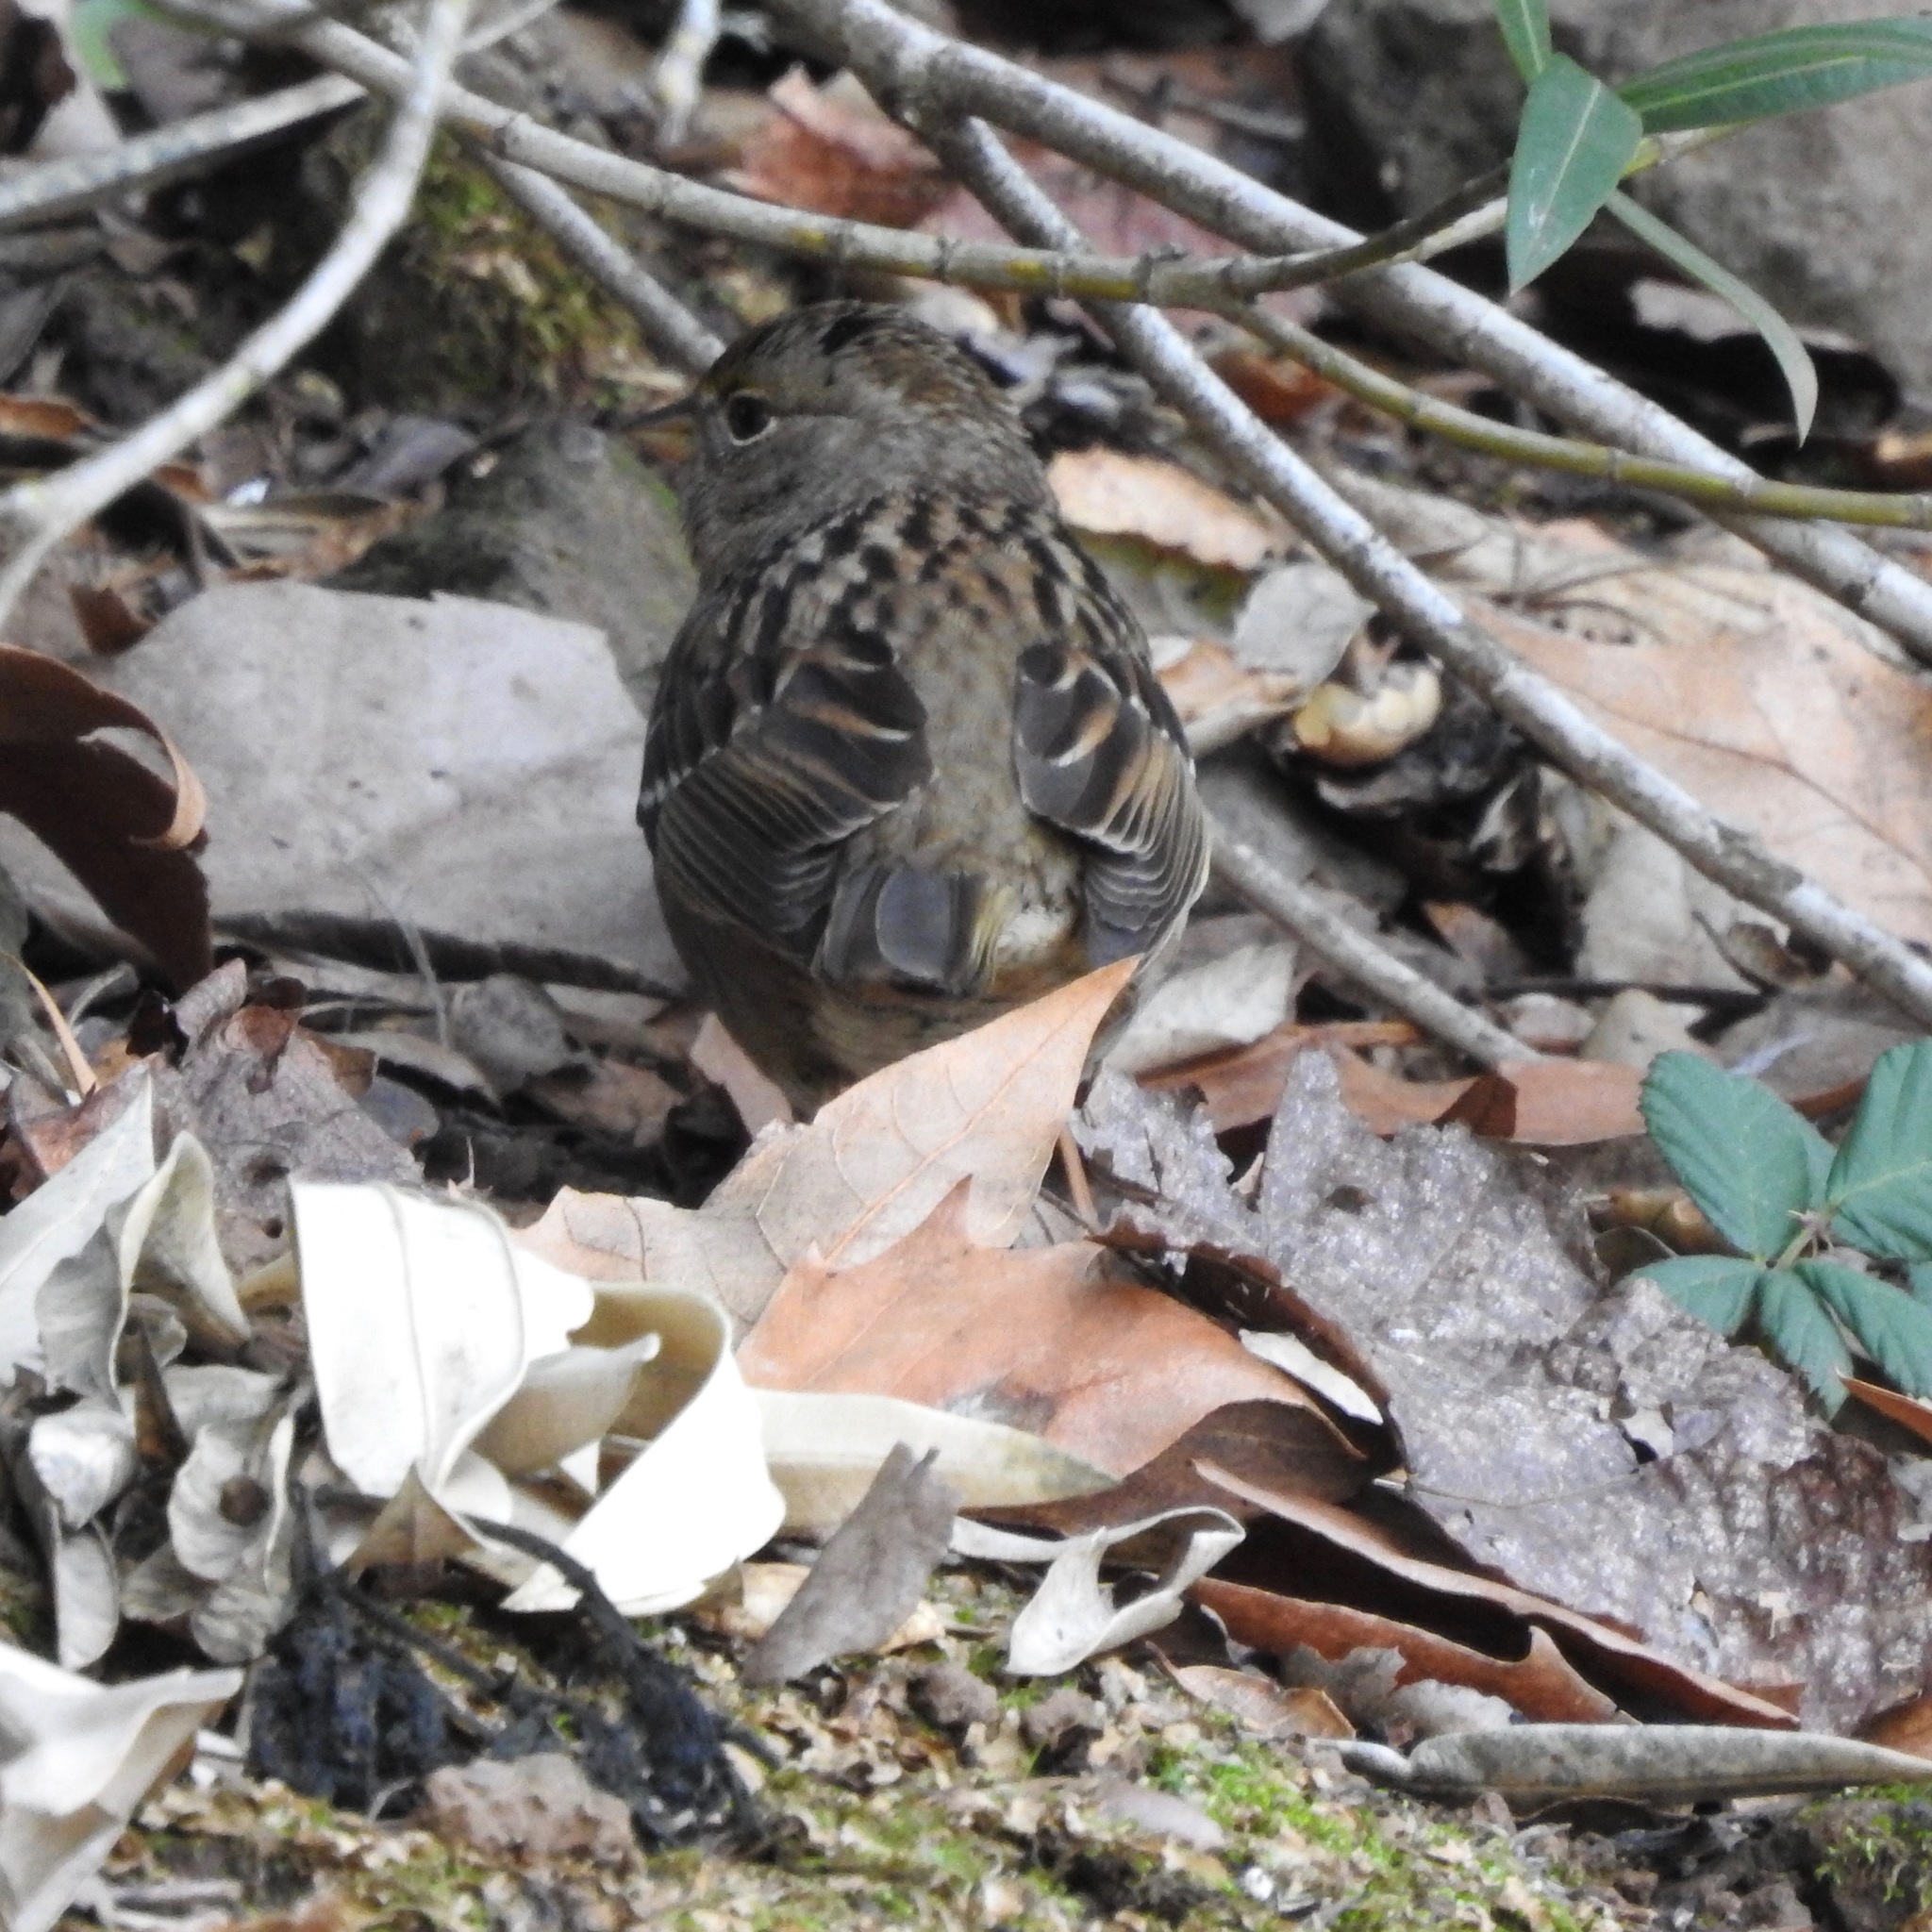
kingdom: Animalia
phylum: Chordata
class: Aves
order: Passeriformes
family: Passerellidae
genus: Zonotrichia
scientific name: Zonotrichia atricapilla
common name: Golden-crowned sparrow
